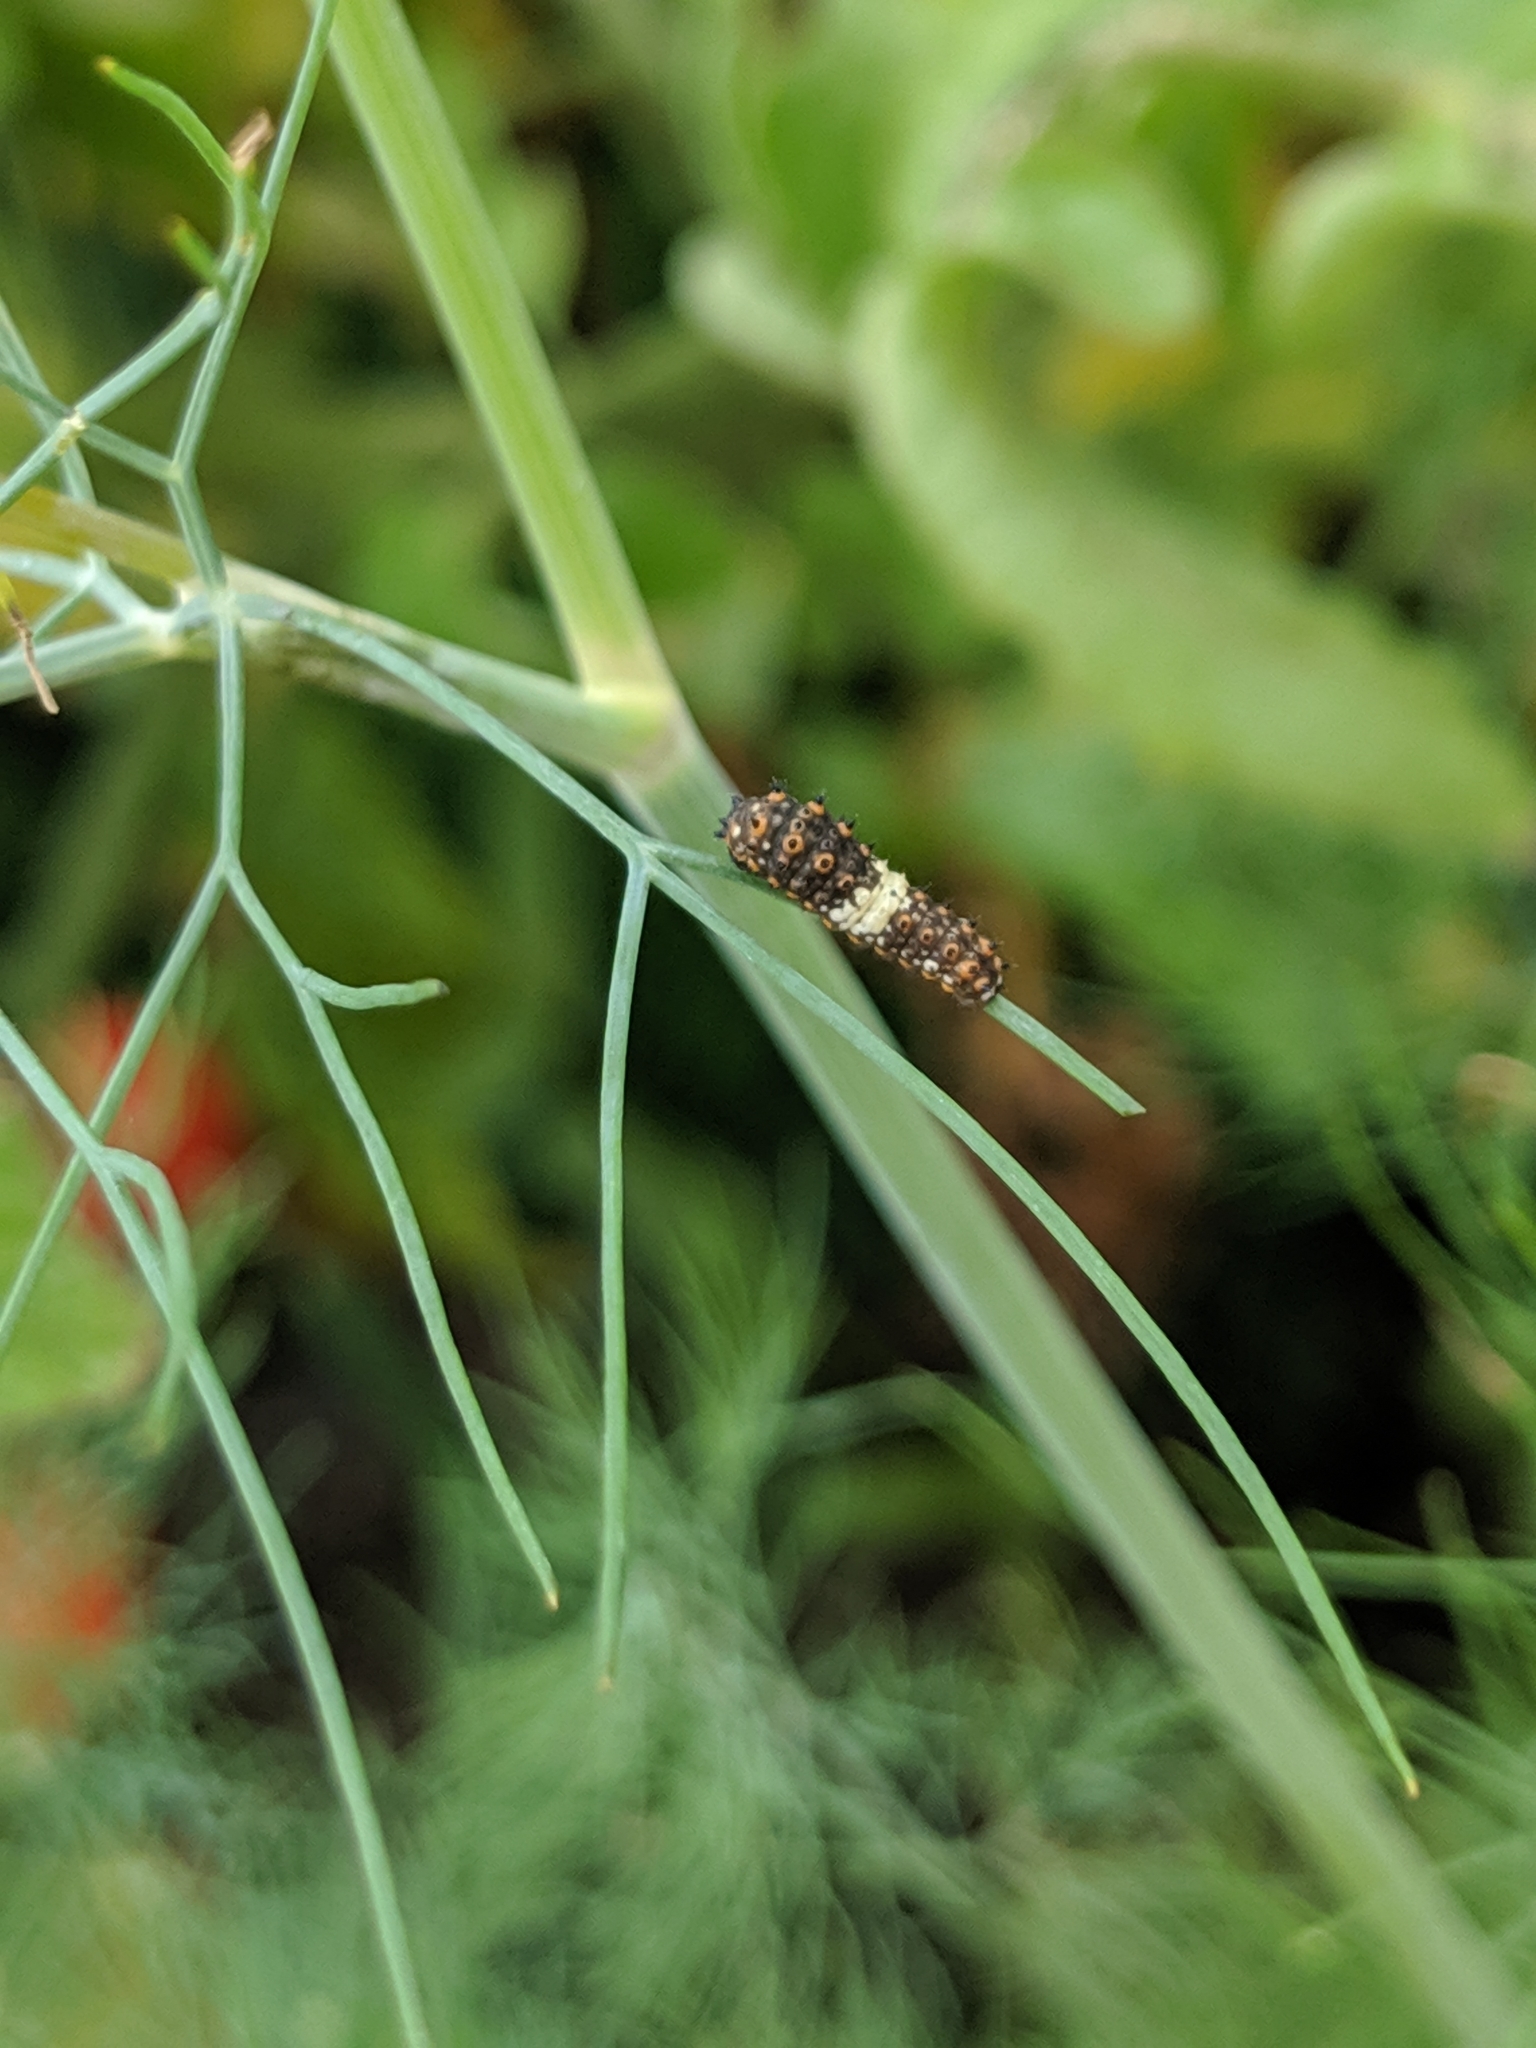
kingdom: Animalia
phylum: Arthropoda
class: Insecta
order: Lepidoptera
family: Papilionidae
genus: Papilio
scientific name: Papilio polyxenes
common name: Black swallowtail
